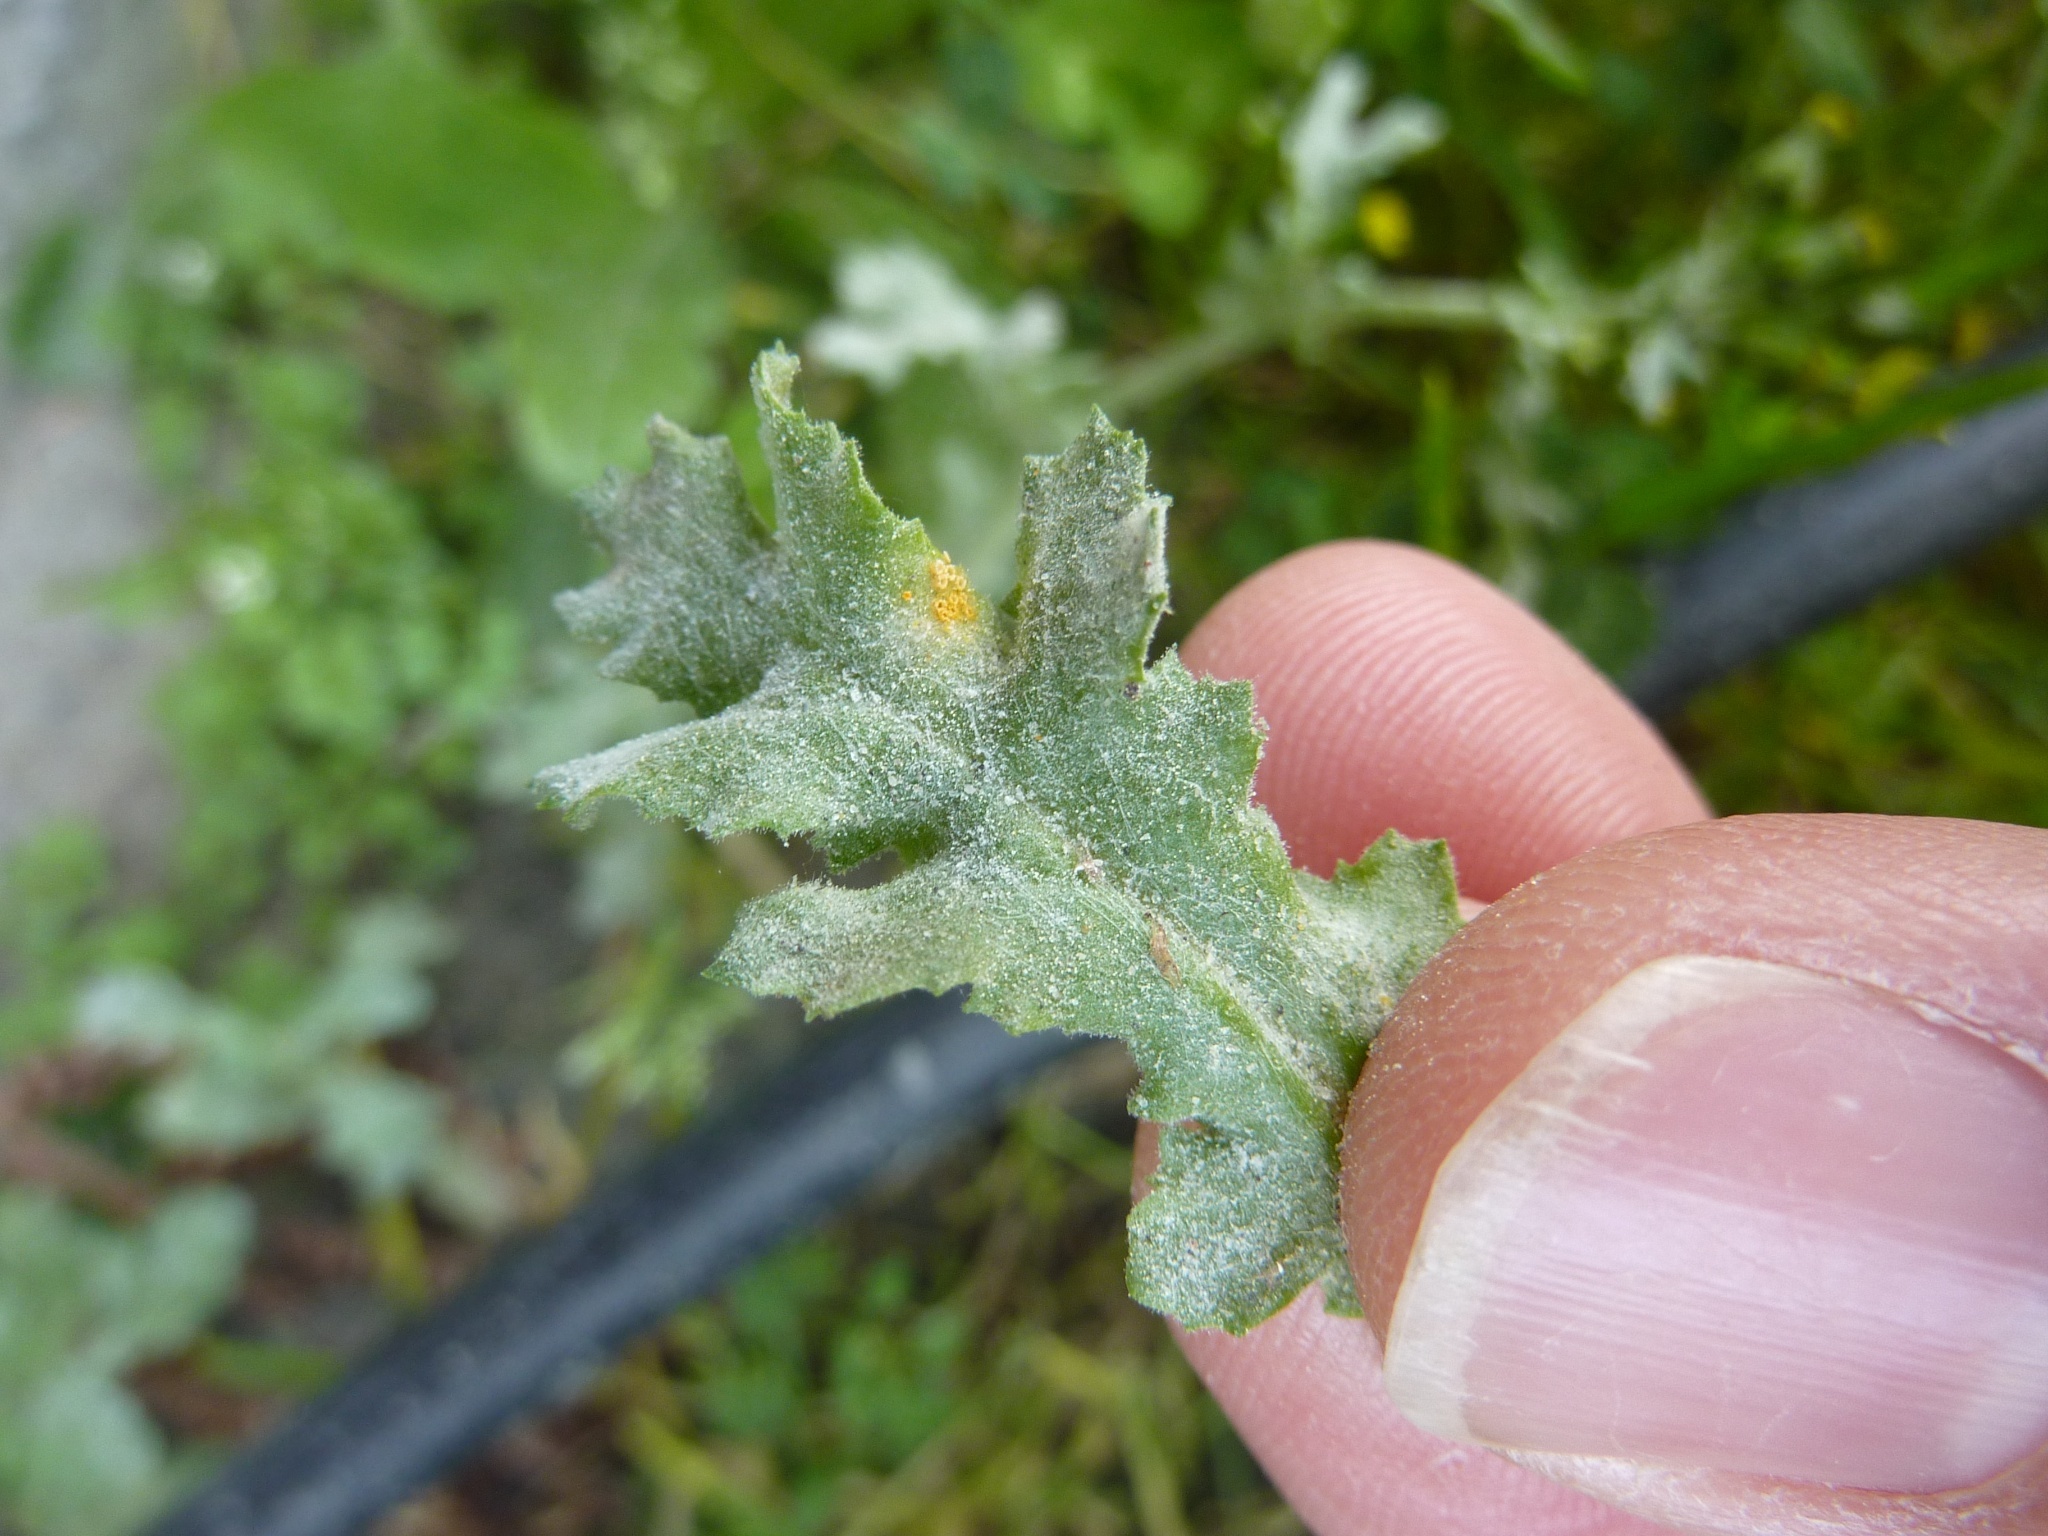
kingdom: Plantae
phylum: Tracheophyta
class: Magnoliopsida
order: Asterales
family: Asteraceae
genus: Senecio
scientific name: Senecio vulgaris
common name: Old-man-in-the-spring
